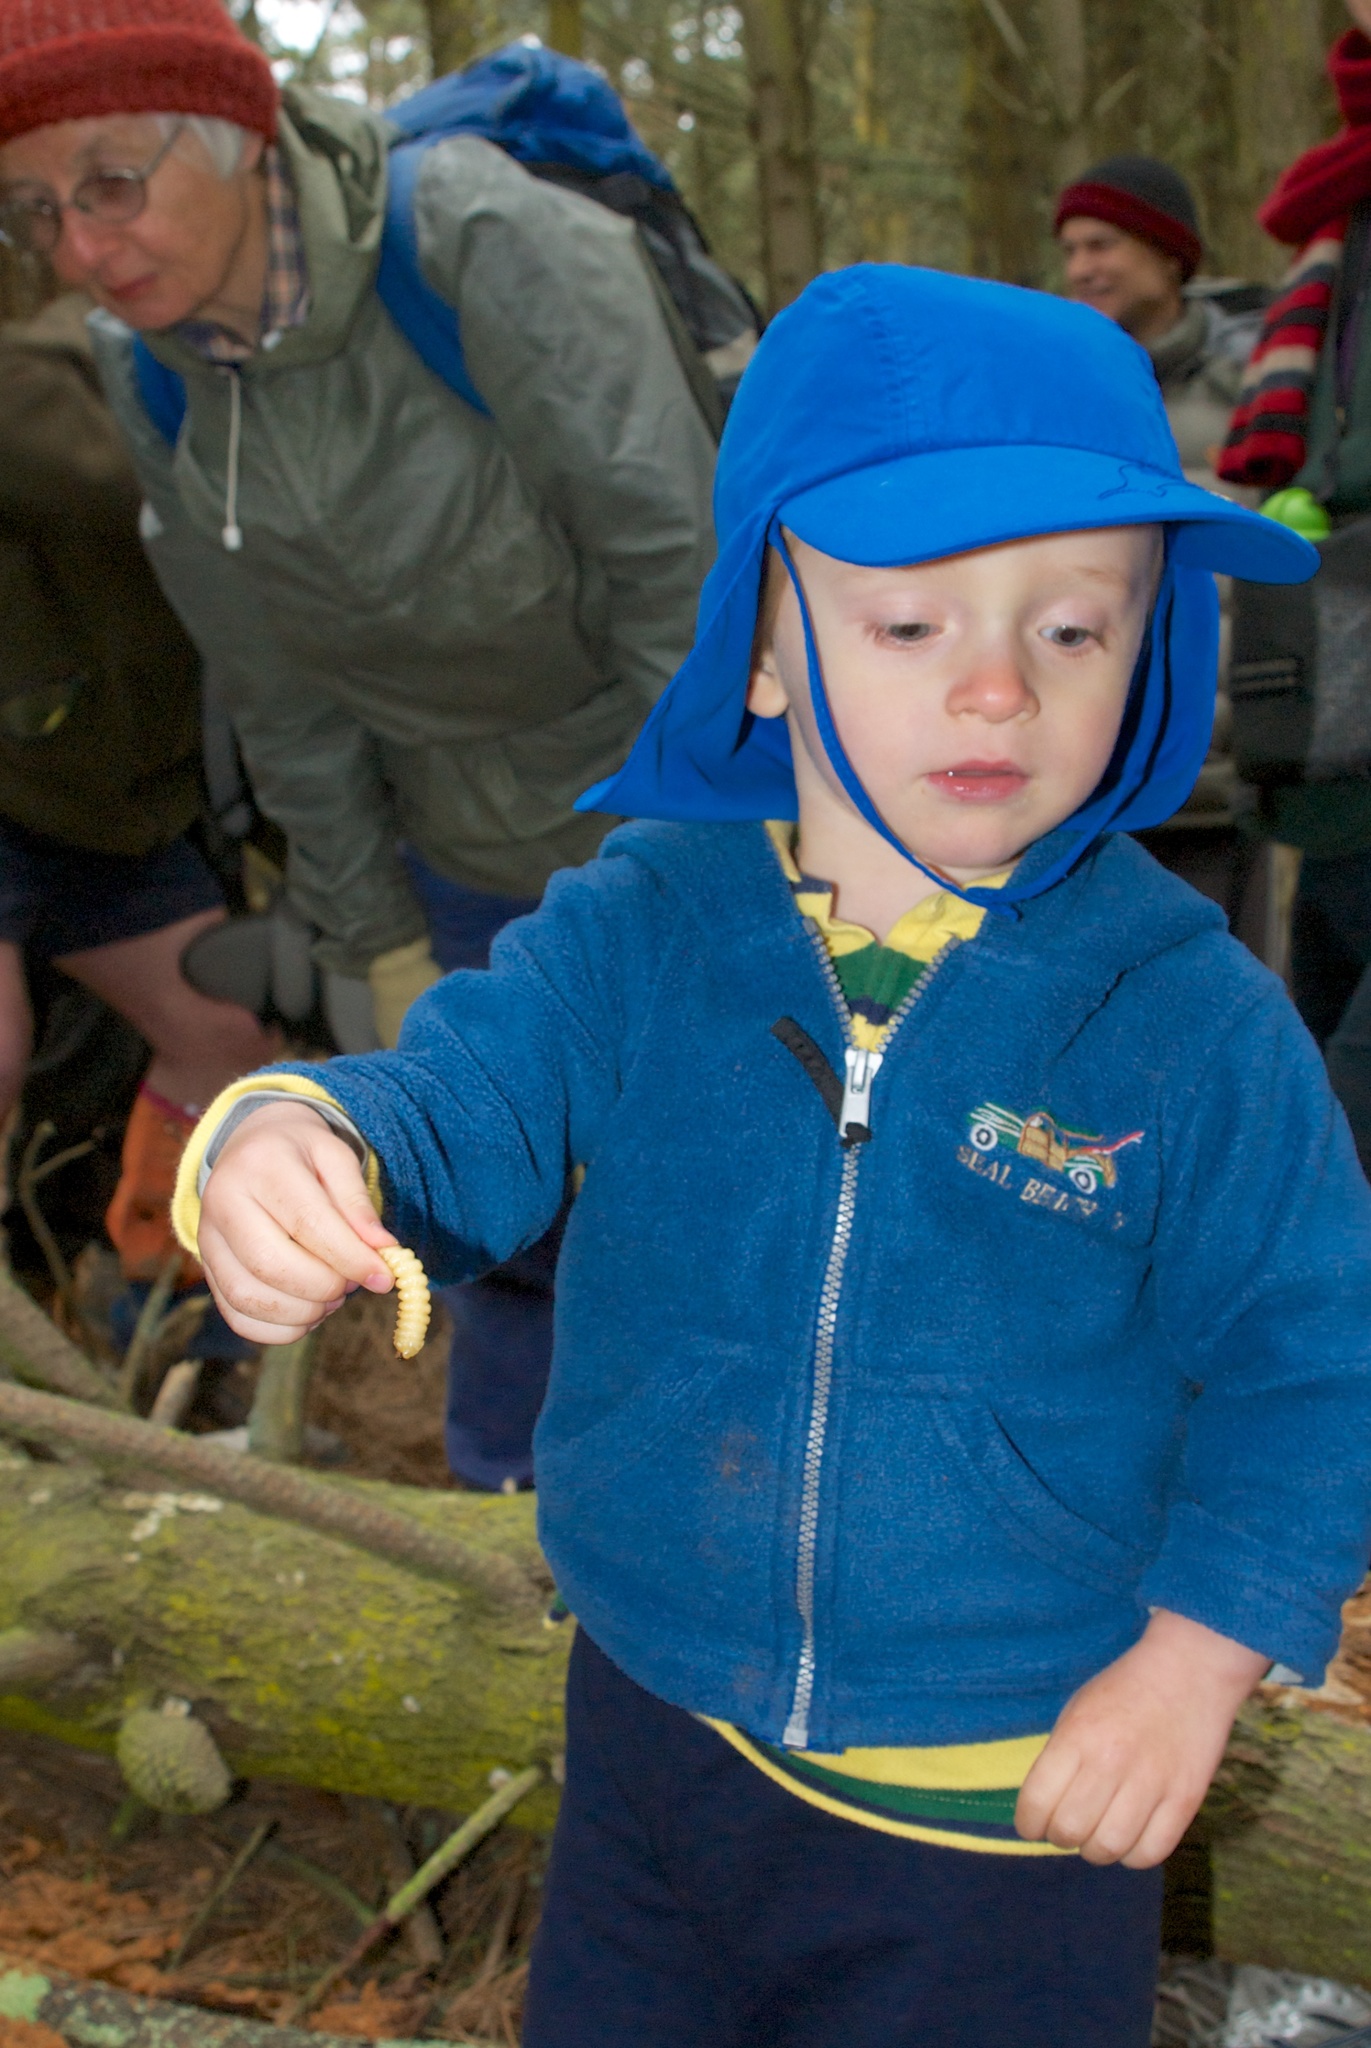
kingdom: Animalia
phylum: Arthropoda
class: Insecta
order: Coleoptera
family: Cerambycidae
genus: Prionoplus
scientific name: Prionoplus reticularis
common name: Huhu beetle
